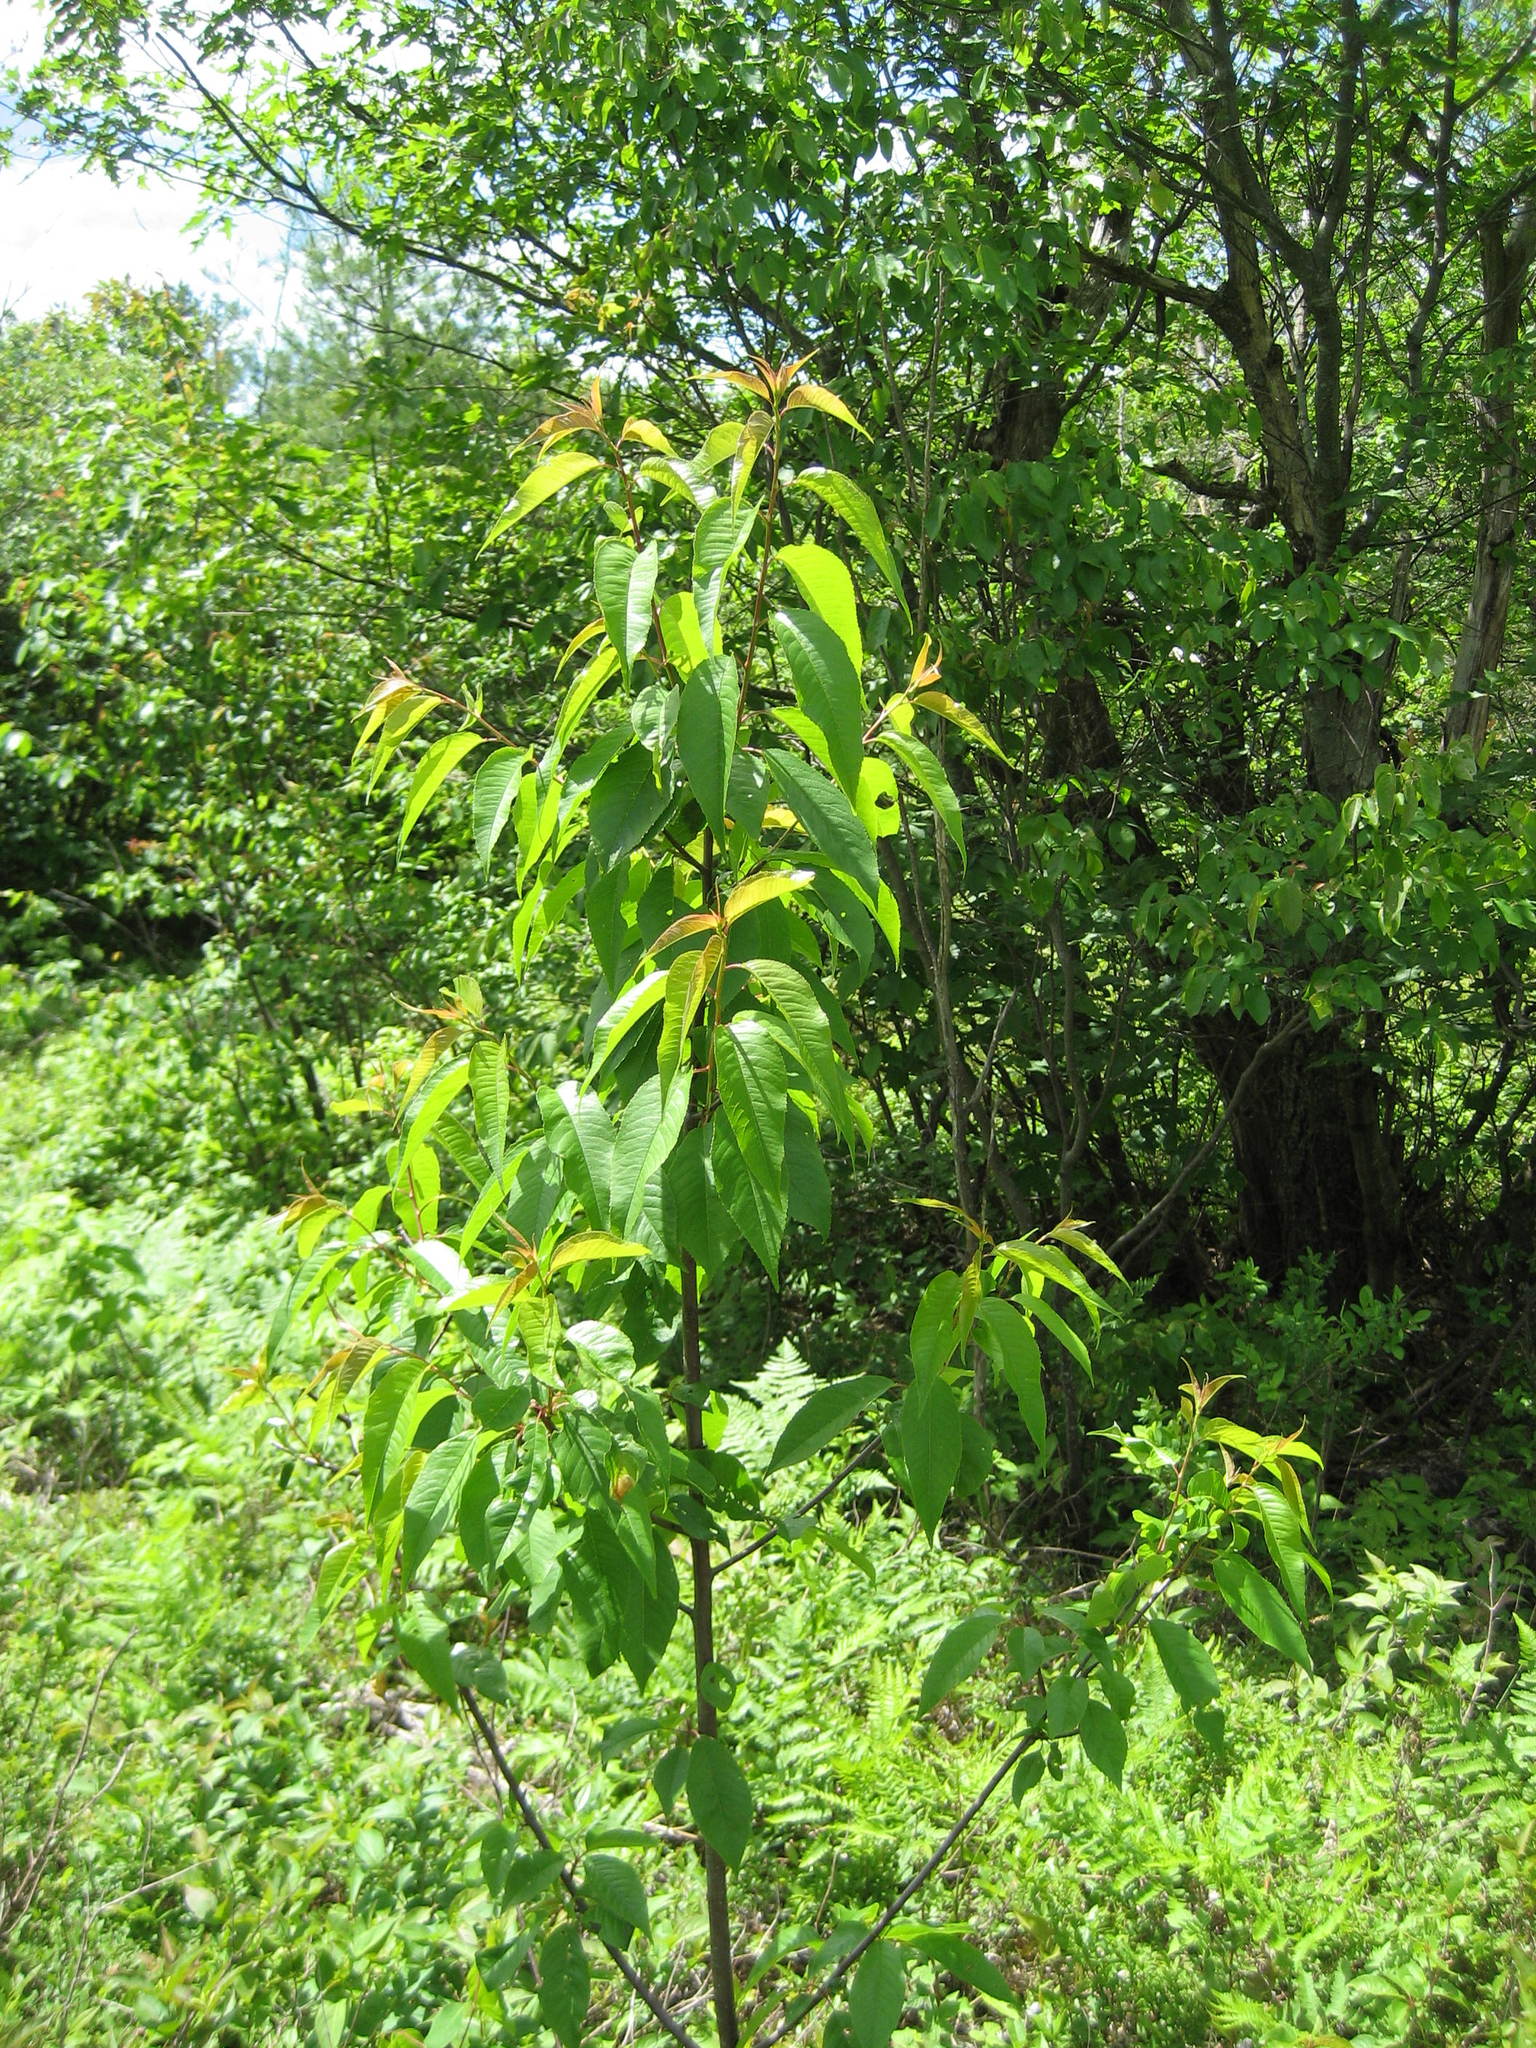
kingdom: Plantae
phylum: Tracheophyta
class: Magnoliopsida
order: Rosales
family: Rosaceae
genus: Prunus
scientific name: Prunus pensylvanica
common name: Pin cherry
